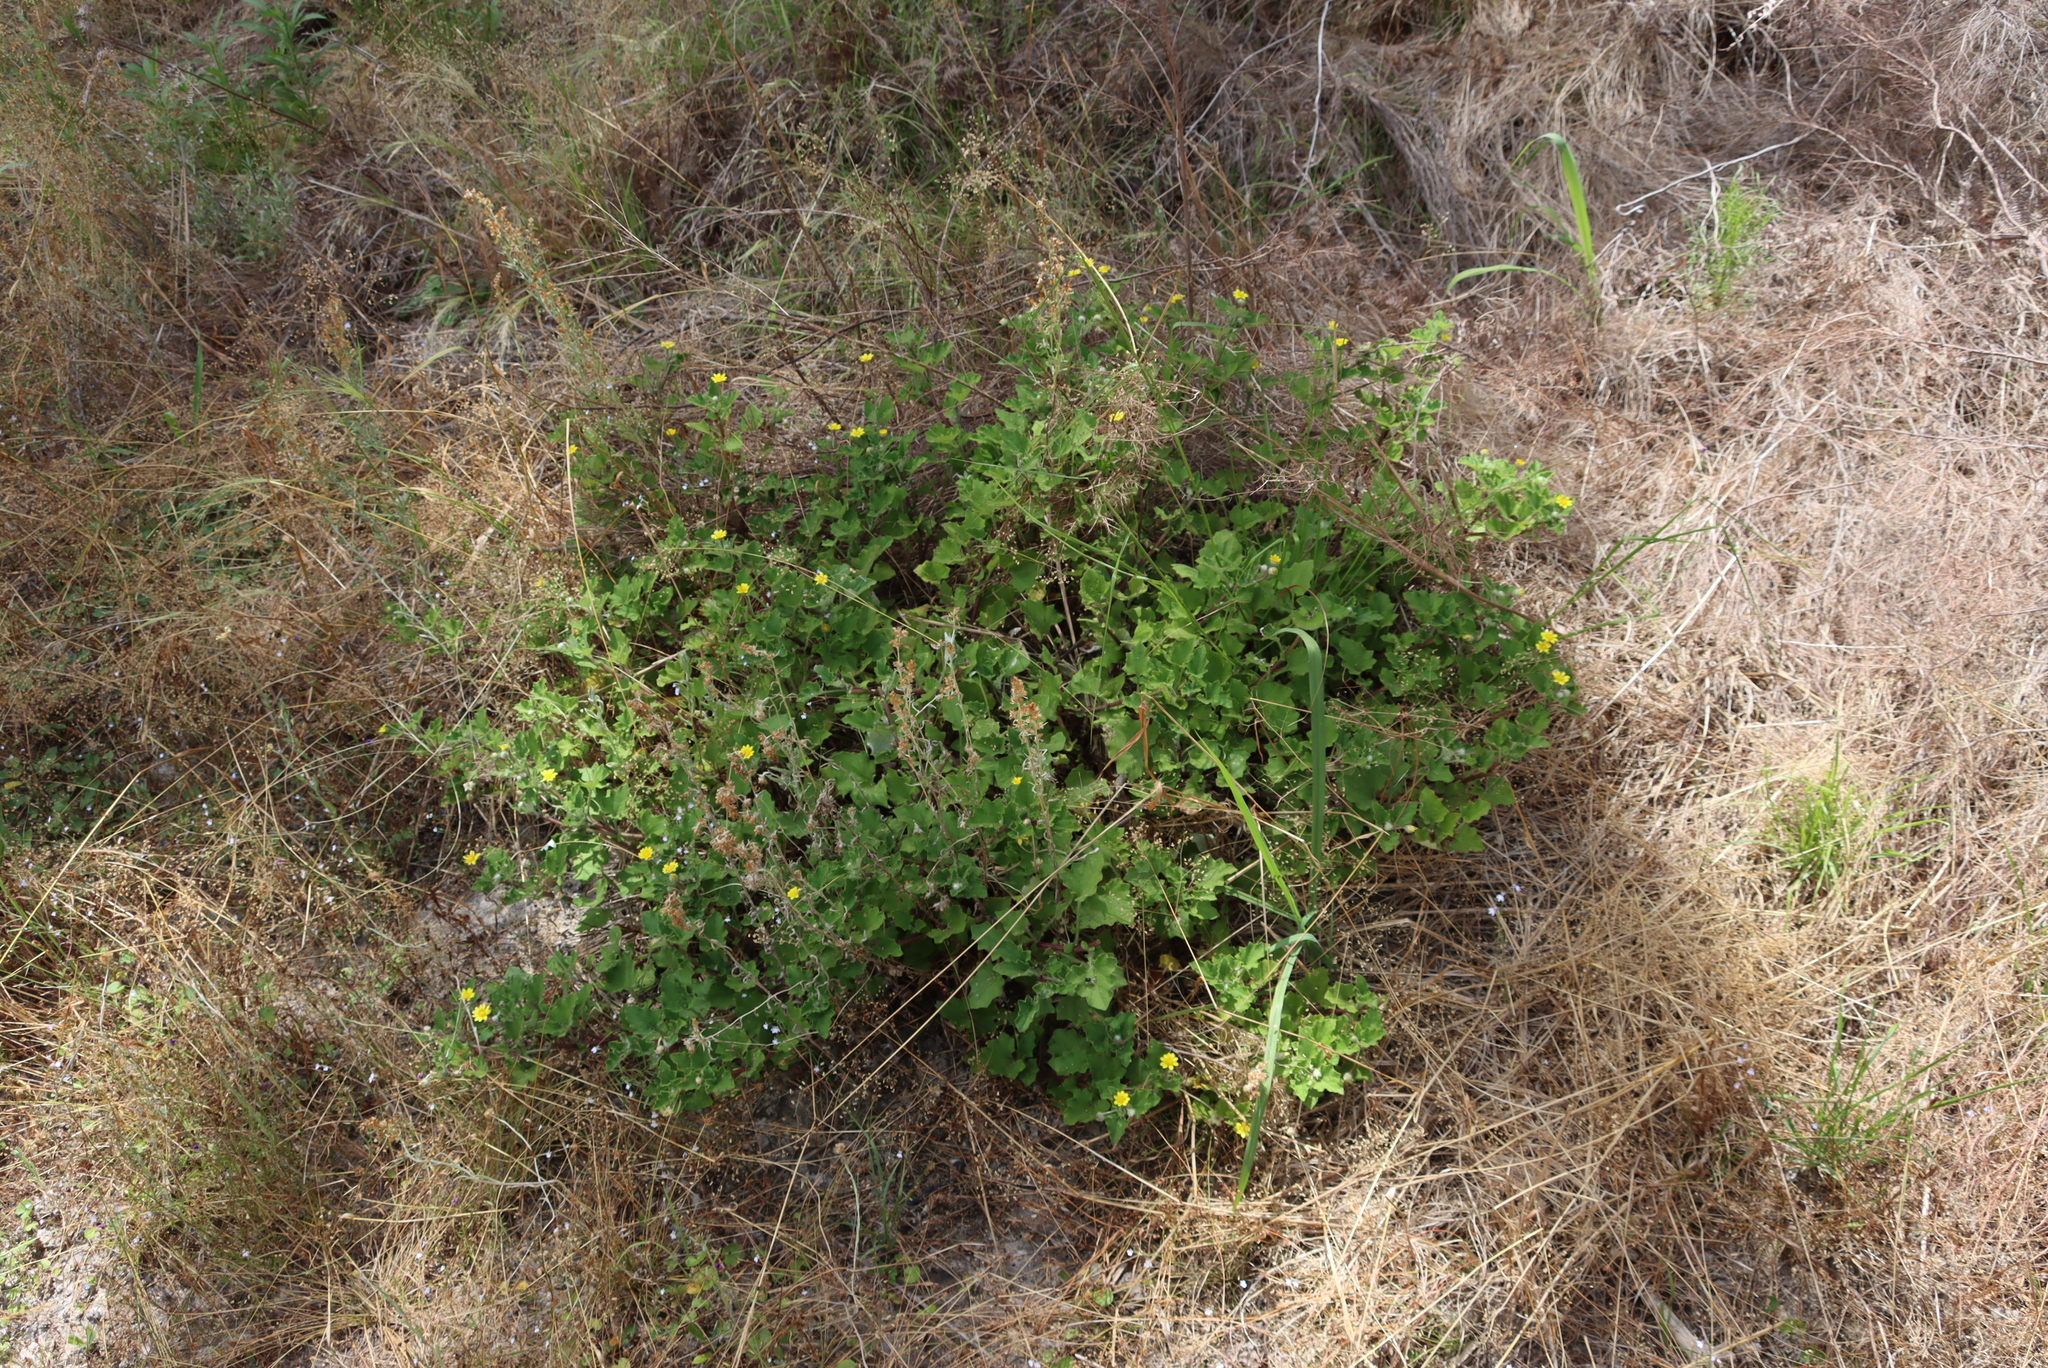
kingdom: Plantae
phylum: Tracheophyta
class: Liliopsida
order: Poales
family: Poaceae
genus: Briza
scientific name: Briza minor
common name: Lesser quaking-grass
